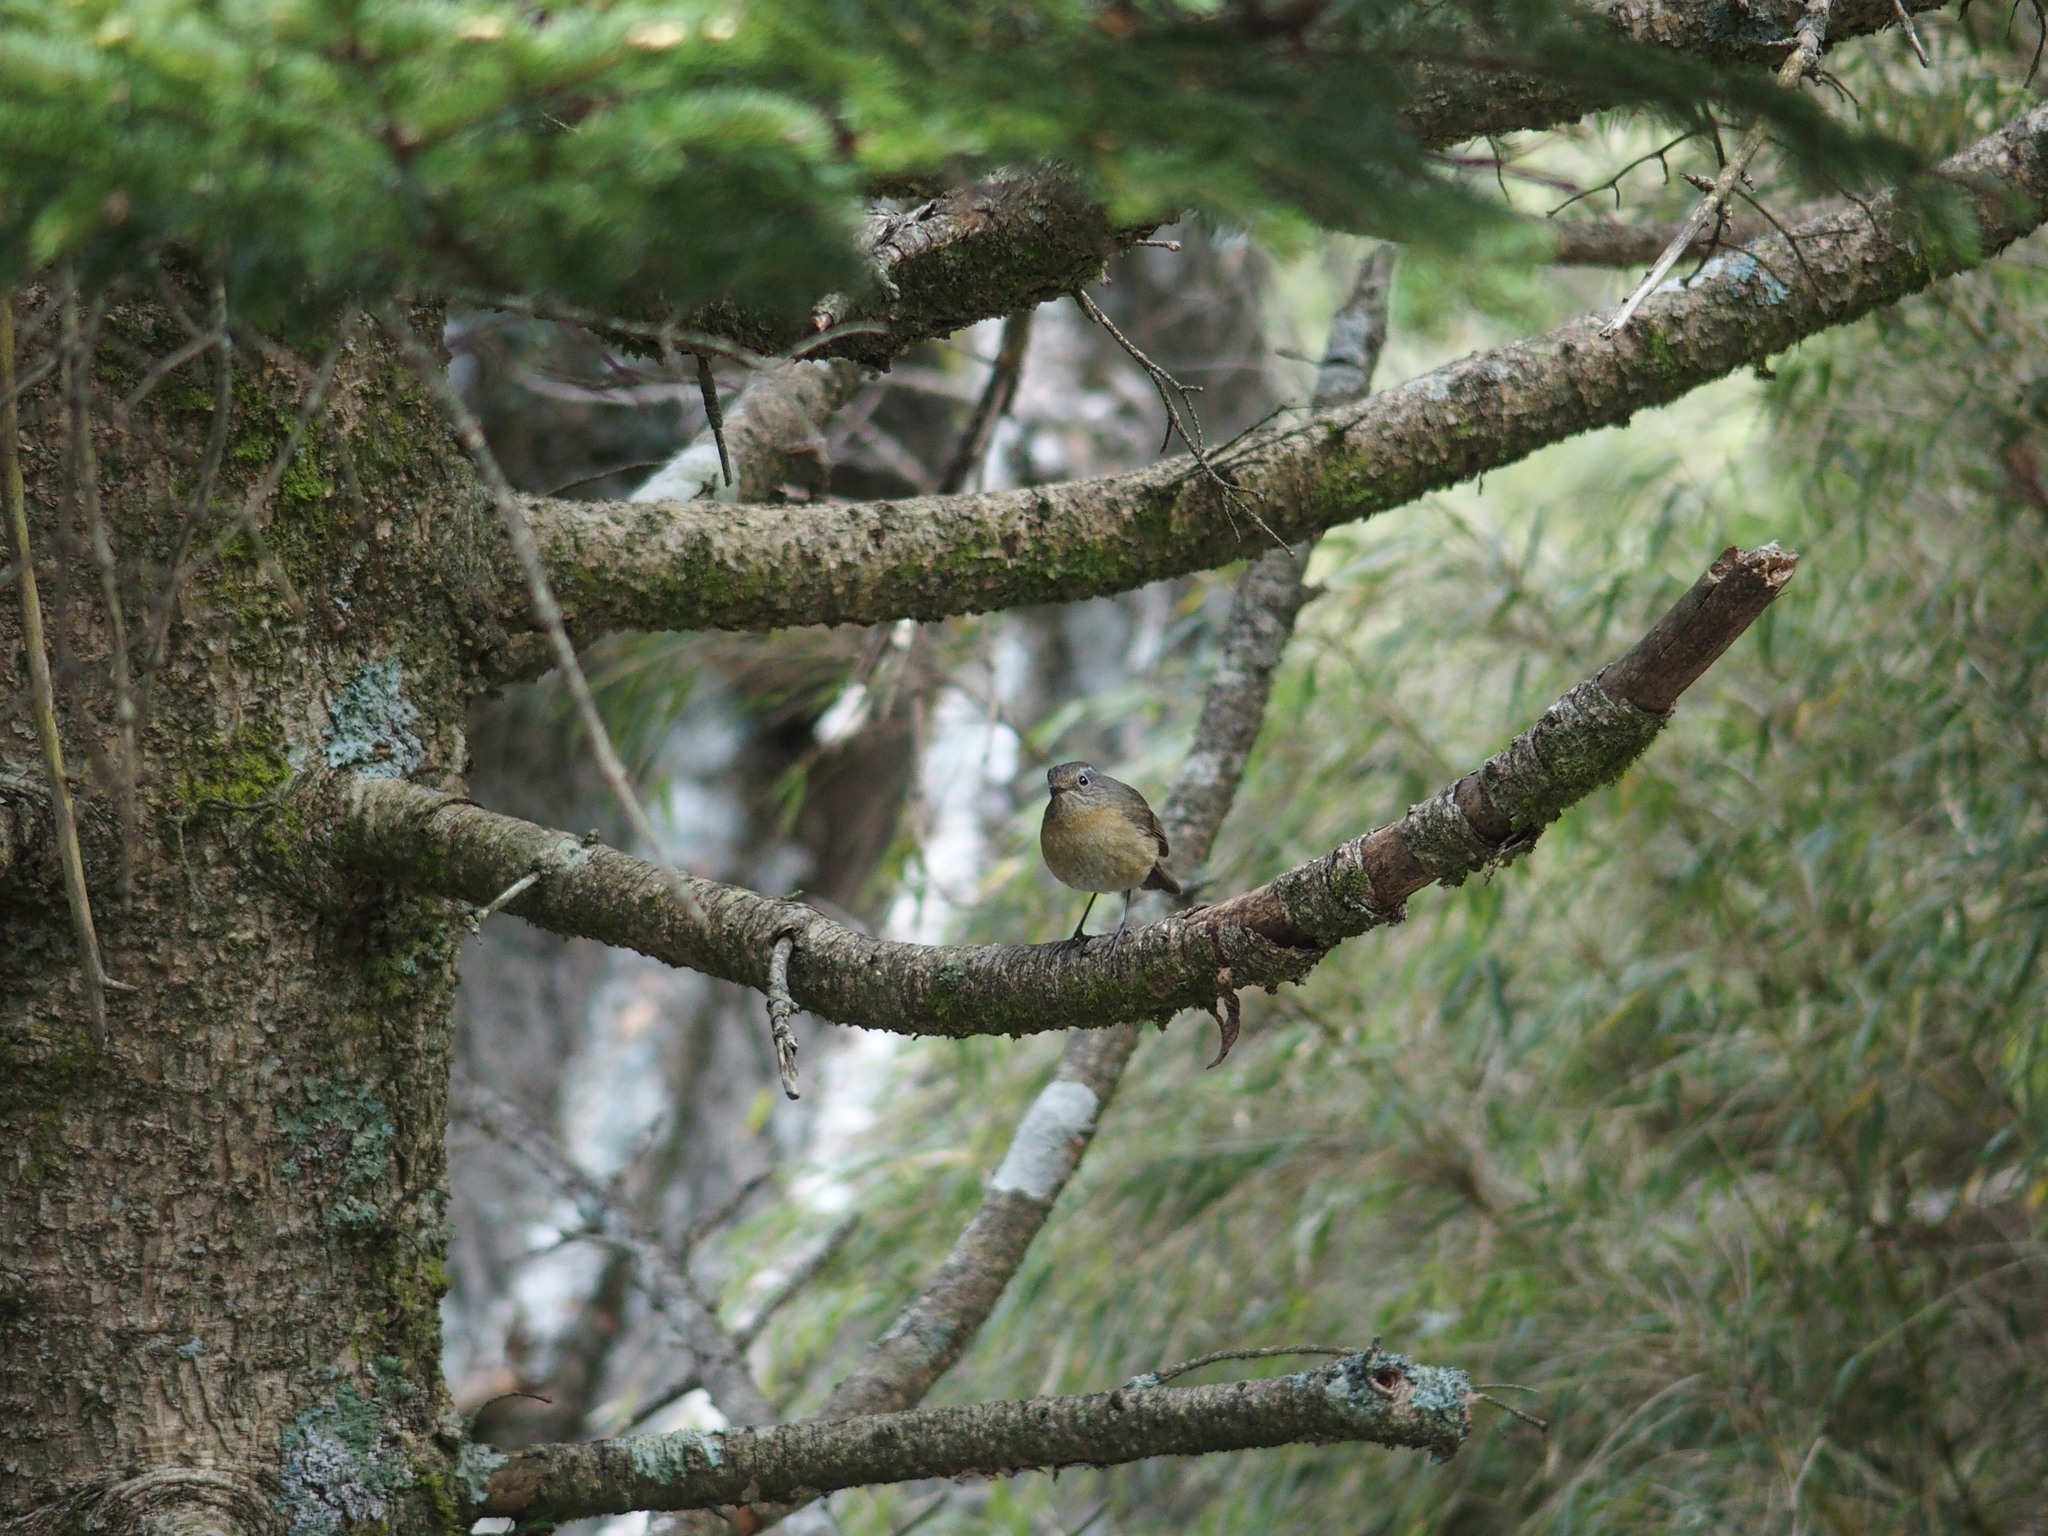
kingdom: Animalia
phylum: Chordata
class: Aves
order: Passeriformes
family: Muscicapidae
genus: Tarsiger
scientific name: Tarsiger johnstoniae
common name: Collared bush robin
